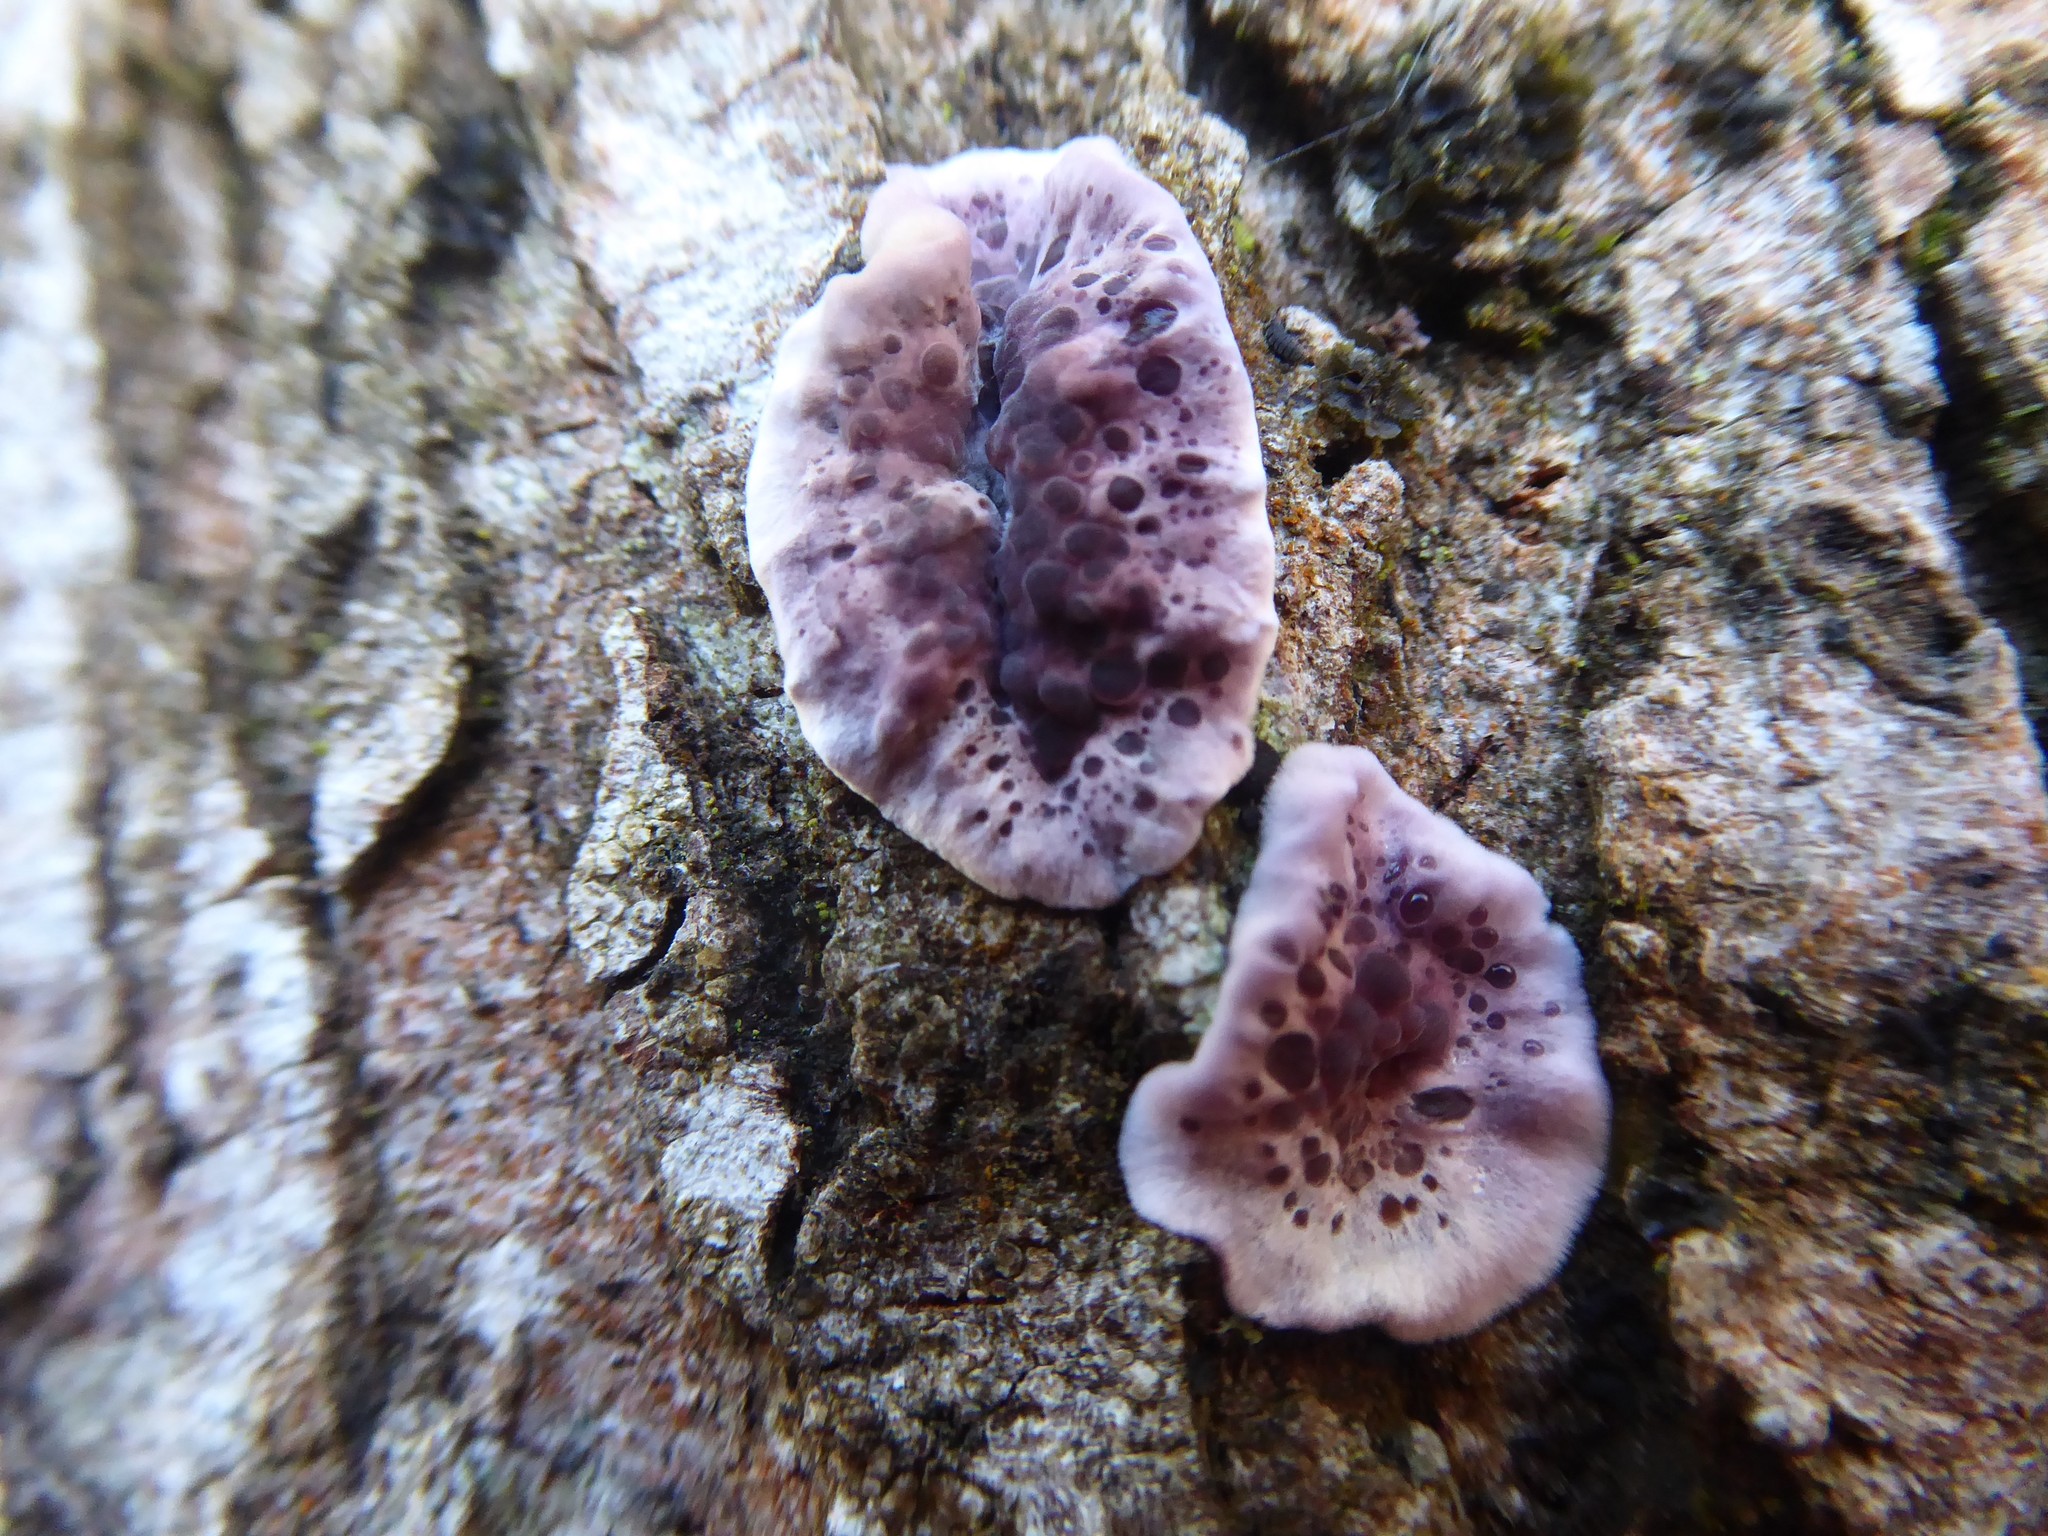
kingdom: Fungi
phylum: Basidiomycota
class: Agaricomycetes
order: Agaricales
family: Cyphellaceae
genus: Chondrostereum
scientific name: Chondrostereum purpureum
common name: Silver leaf disease
